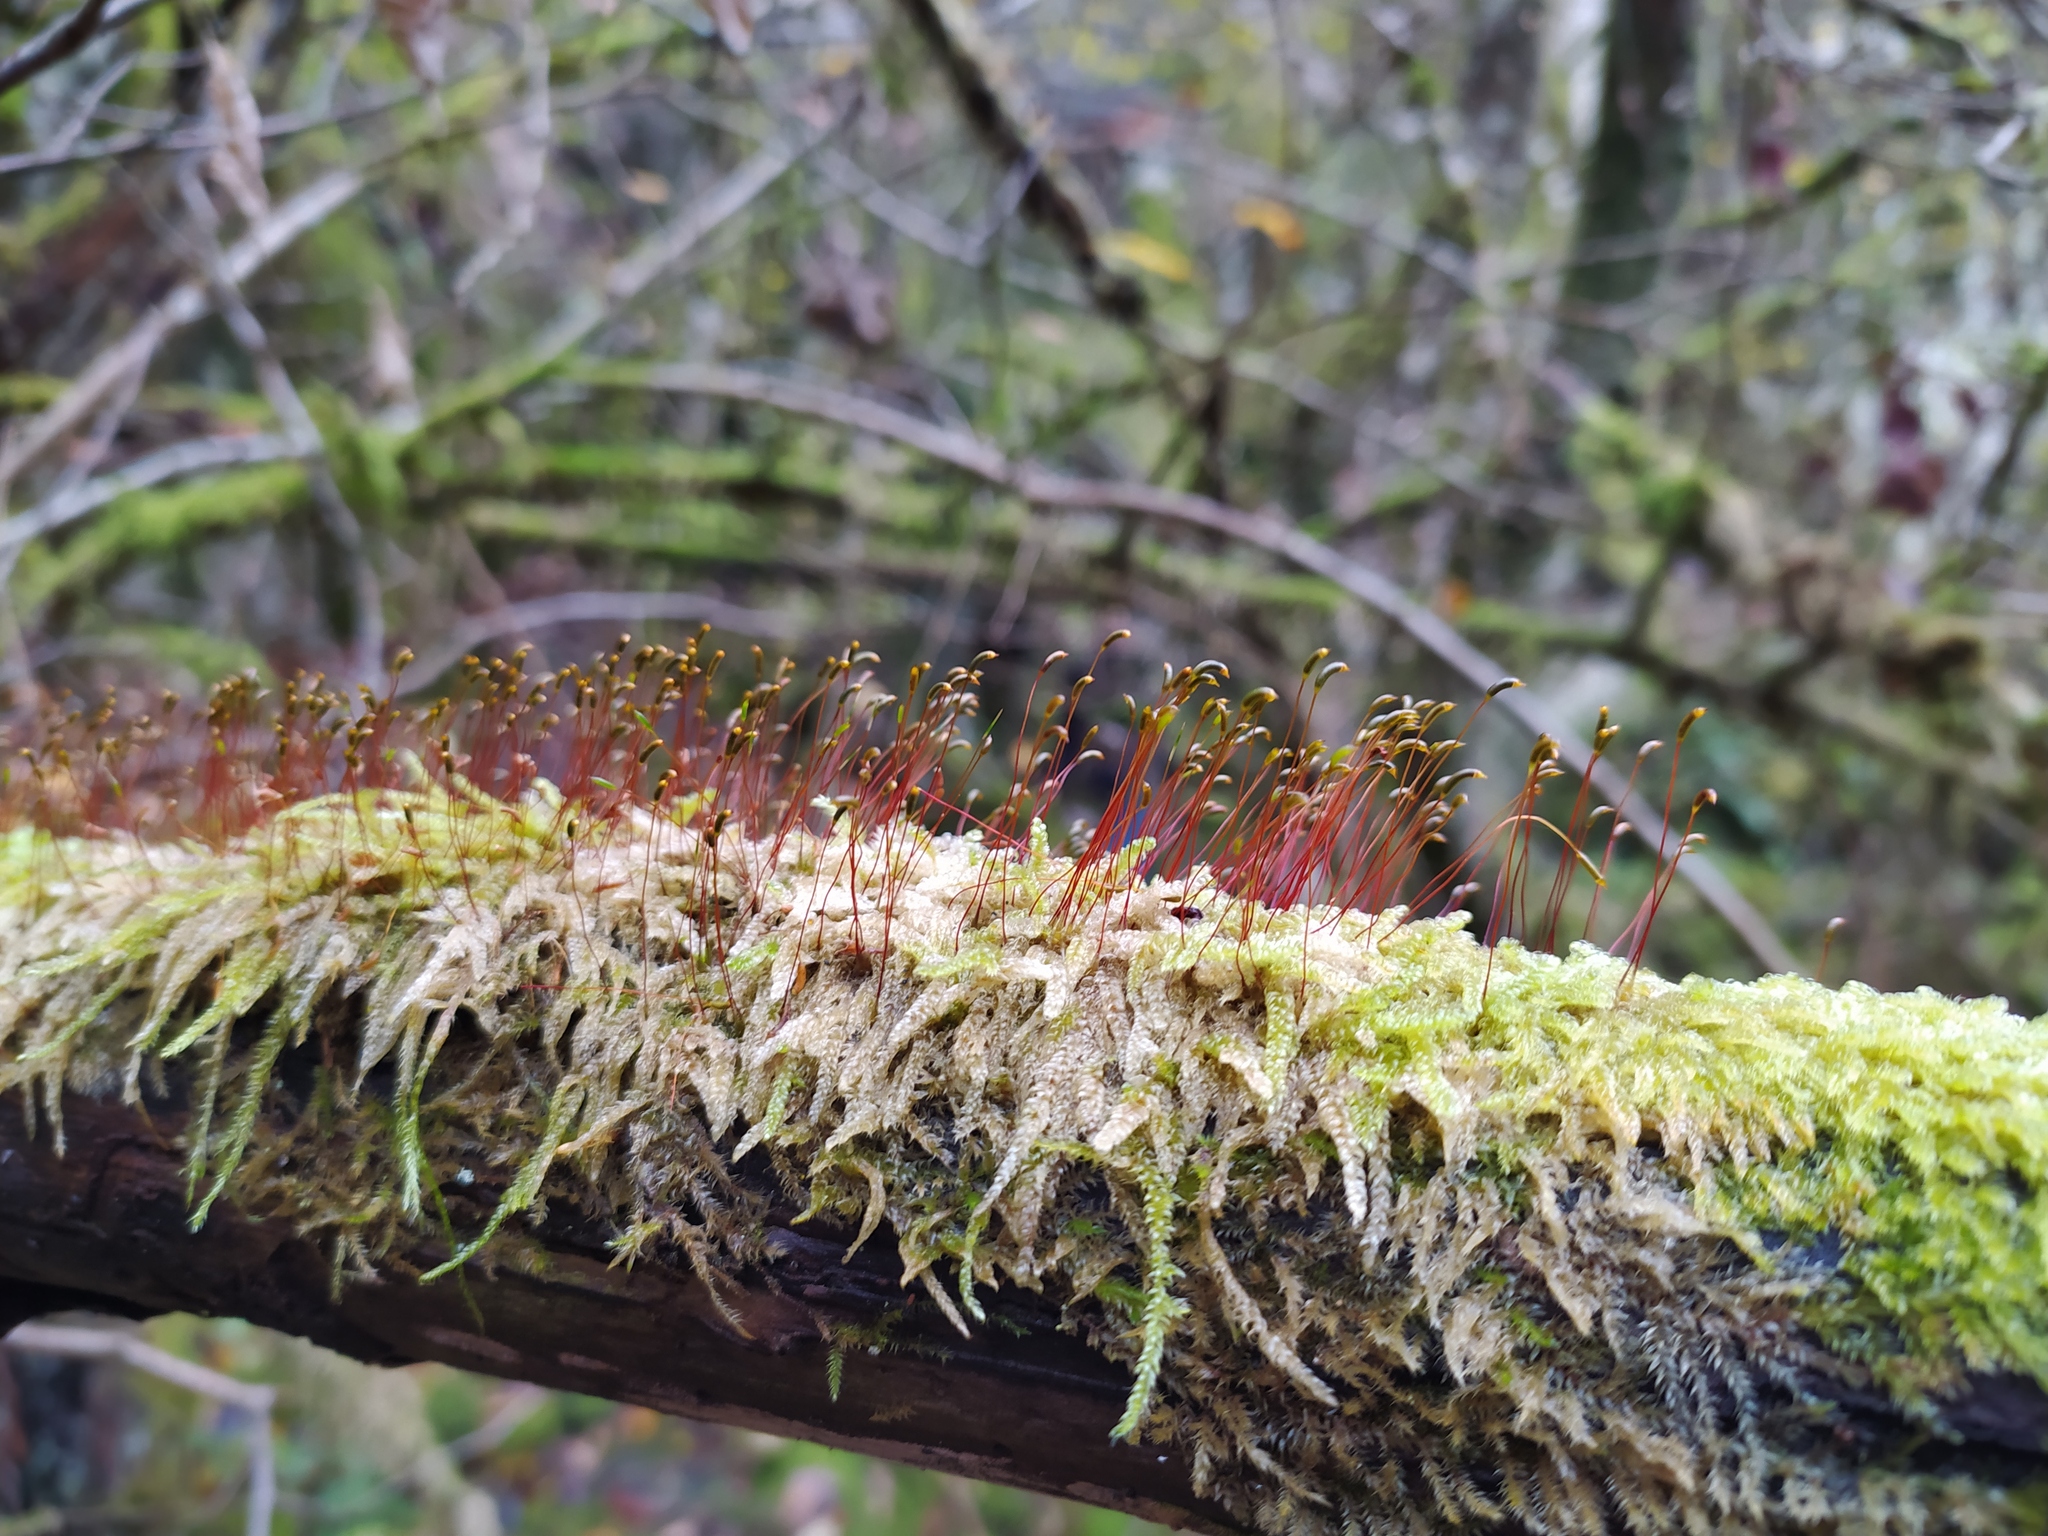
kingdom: Plantae
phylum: Bryophyta
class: Bryopsida
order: Hypnales
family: Hypnaceae
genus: Hypnum
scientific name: Hypnum cupressiforme
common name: Cypress-leaved plait-moss
